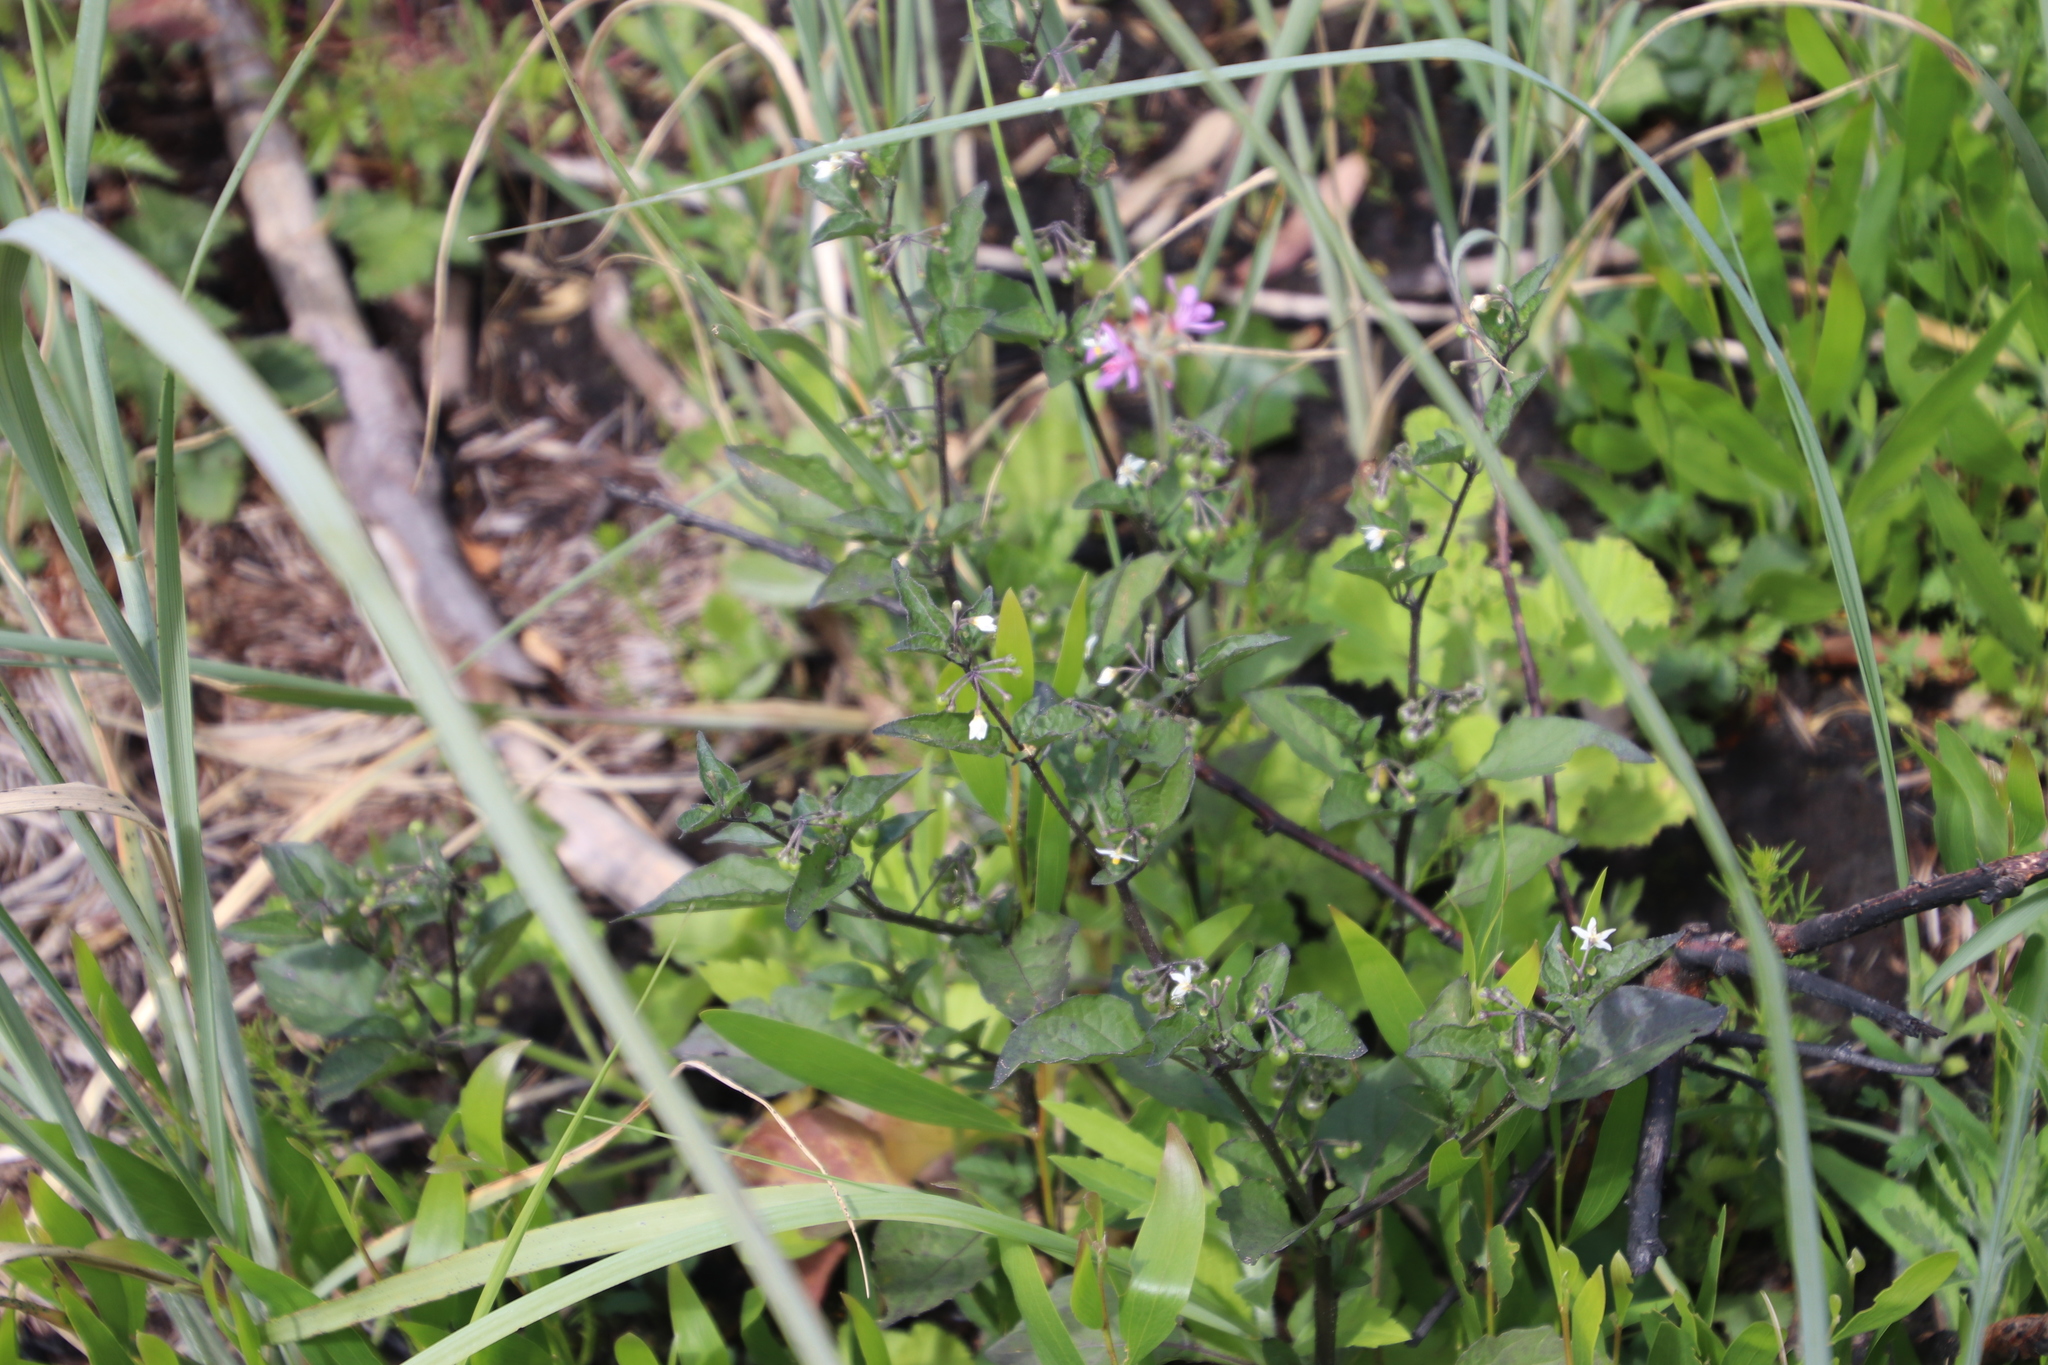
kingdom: Plantae
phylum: Tracheophyta
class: Magnoliopsida
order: Solanales
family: Solanaceae
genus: Solanum
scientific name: Solanum nigrum
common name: Black nightshade
